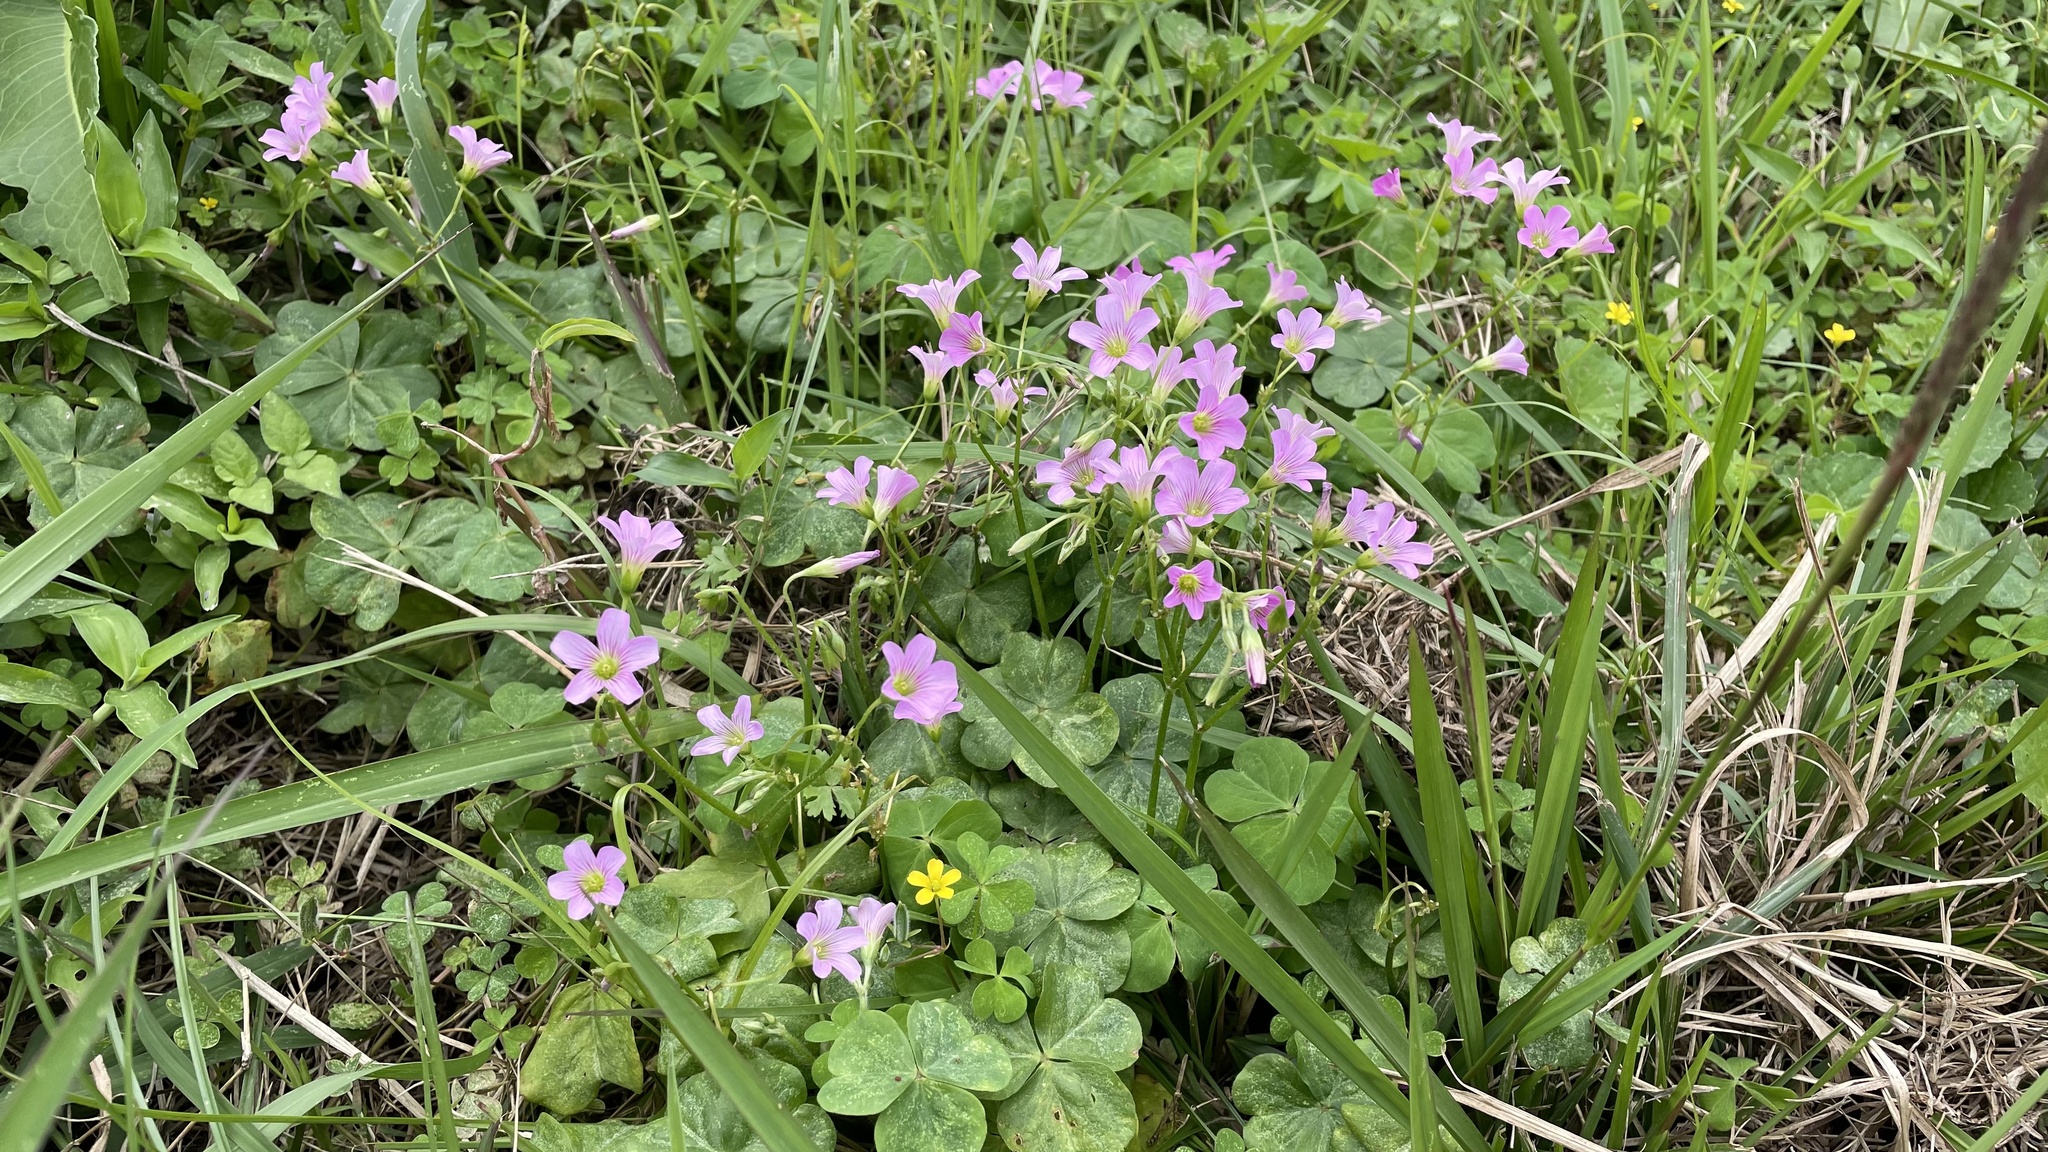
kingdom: Plantae
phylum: Tracheophyta
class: Magnoliopsida
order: Oxalidales
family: Oxalidaceae
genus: Oxalis
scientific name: Oxalis debilis
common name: Large-flowered pink-sorrel
